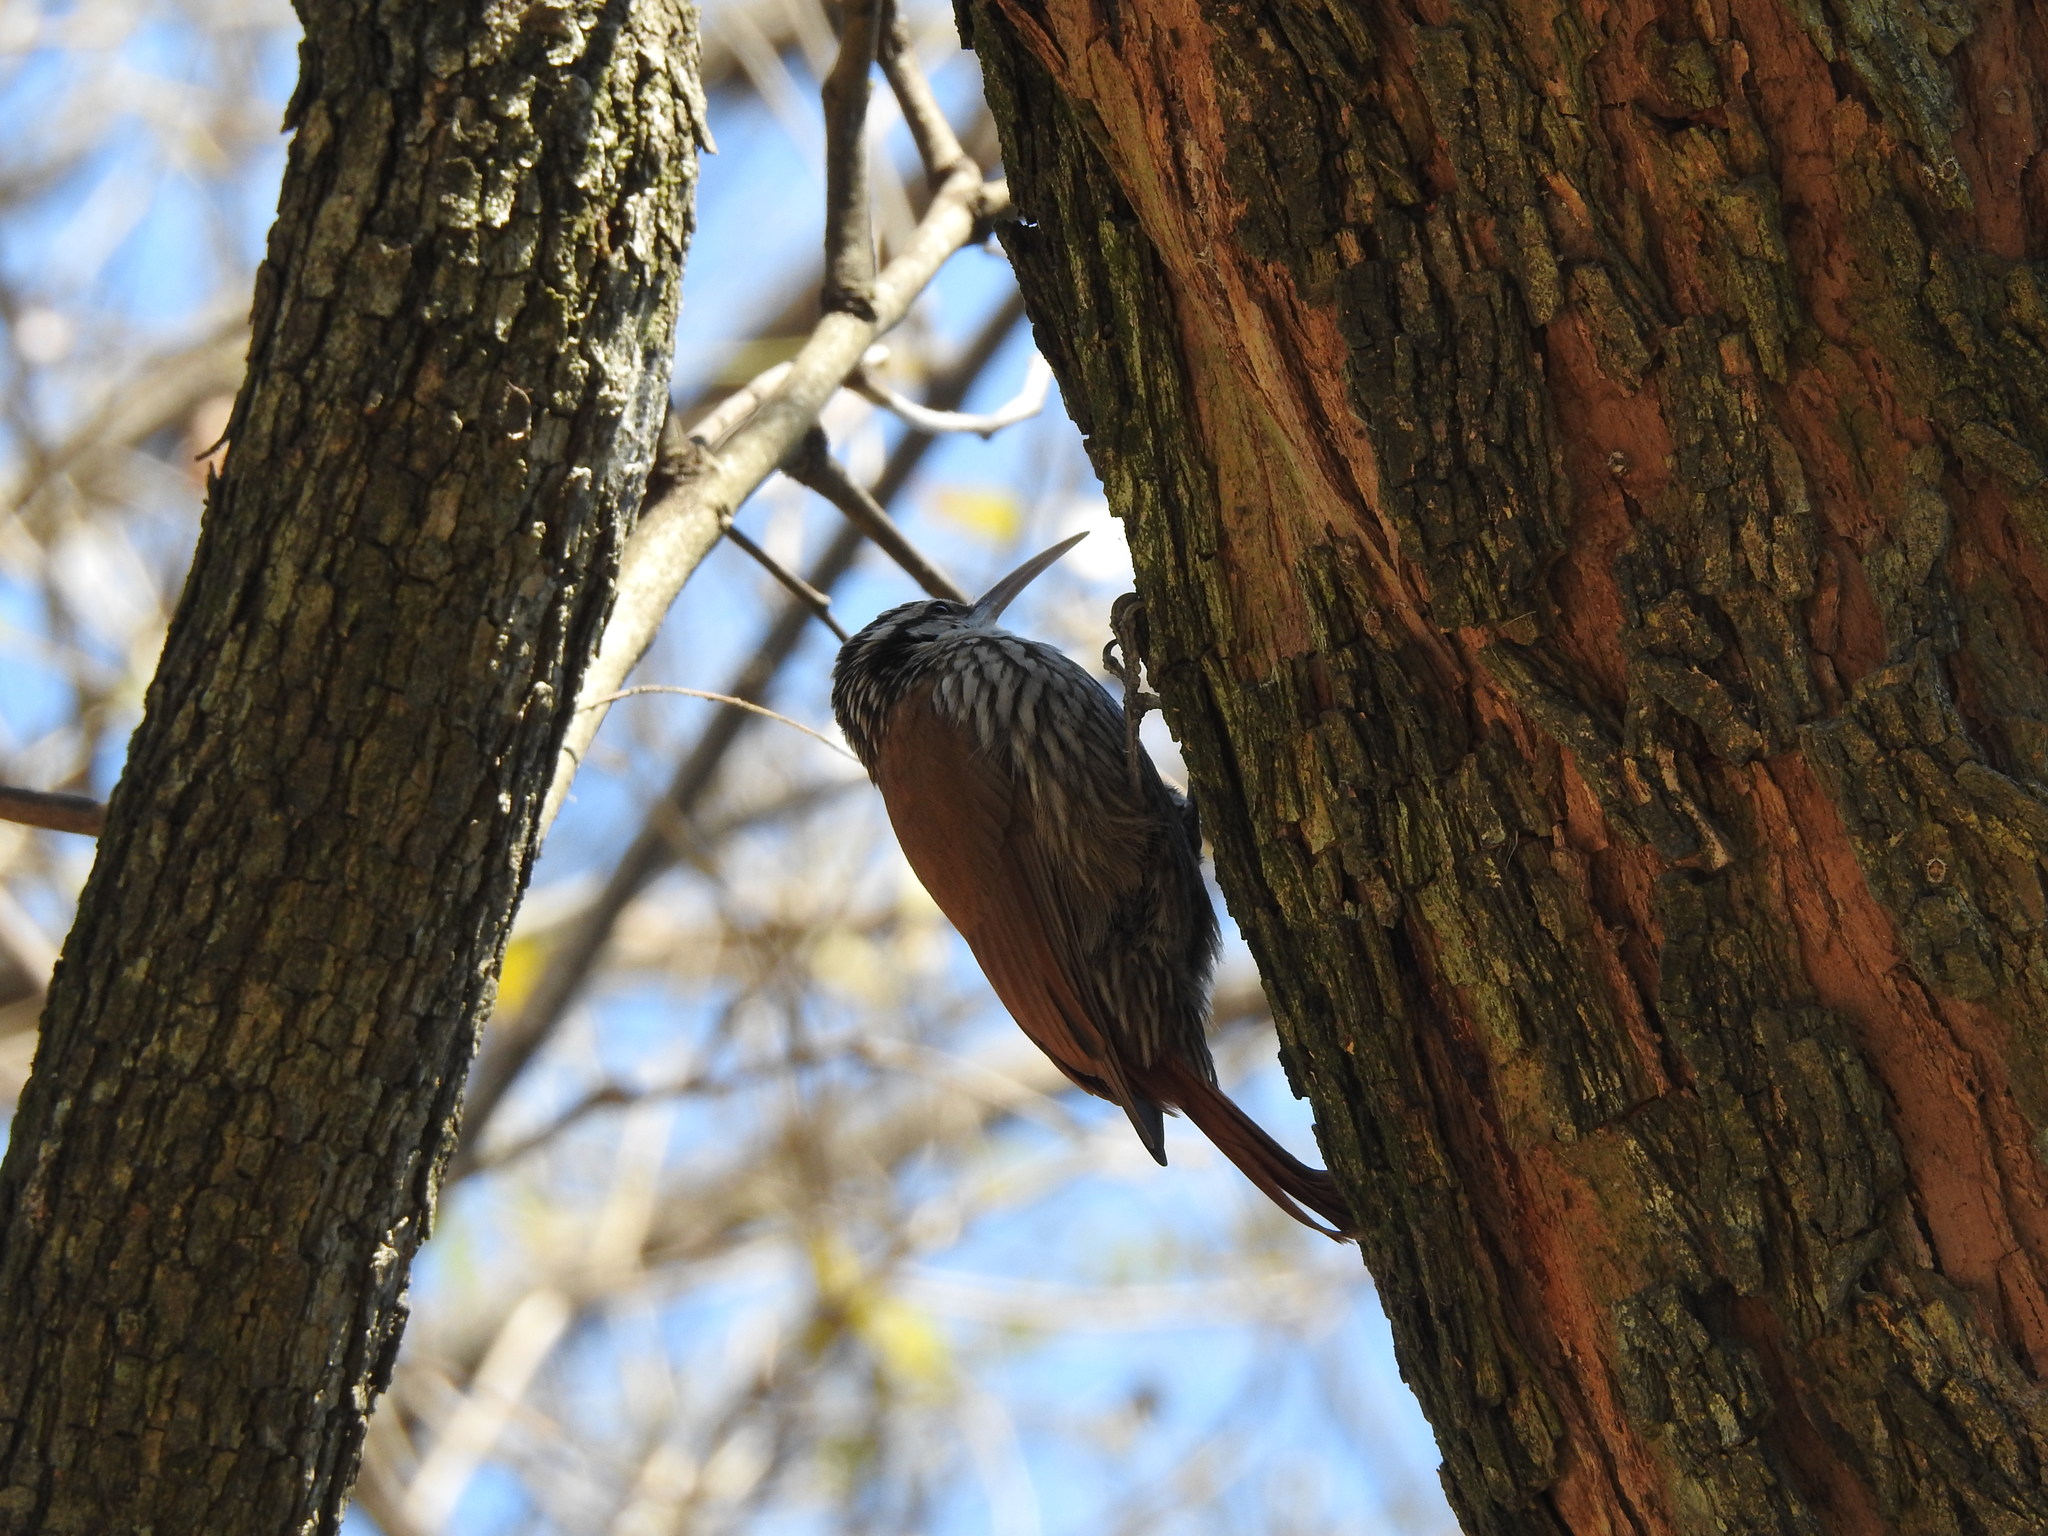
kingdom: Animalia
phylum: Chordata
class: Aves
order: Passeriformes
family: Furnariidae
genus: Lepidocolaptes
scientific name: Lepidocolaptes angustirostris
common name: Narrow-billed woodcreeper
